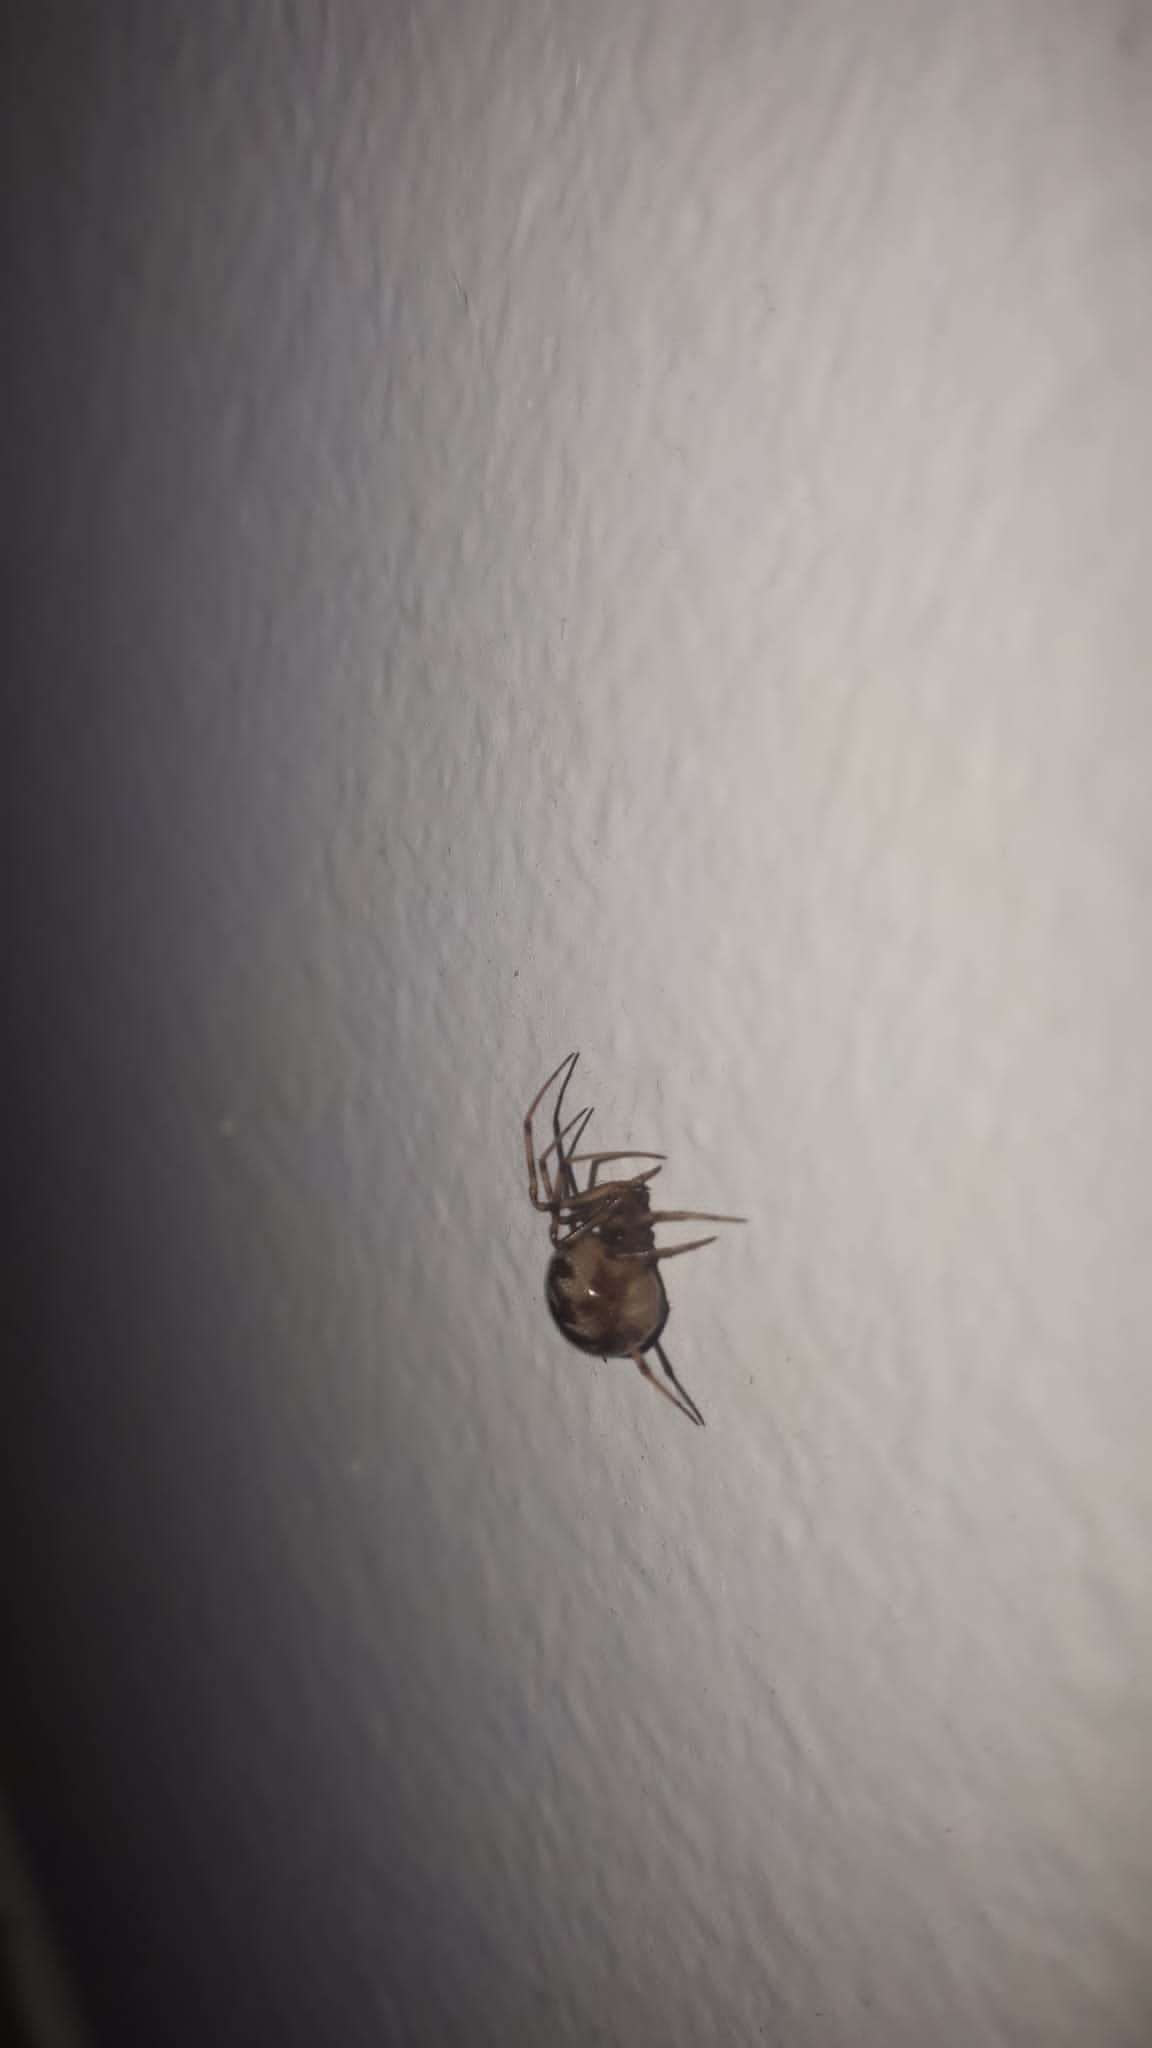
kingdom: Animalia
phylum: Arthropoda
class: Arachnida
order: Araneae
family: Theridiidae
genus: Steatoda
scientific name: Steatoda triangulosa
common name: Triangulate bud spider
